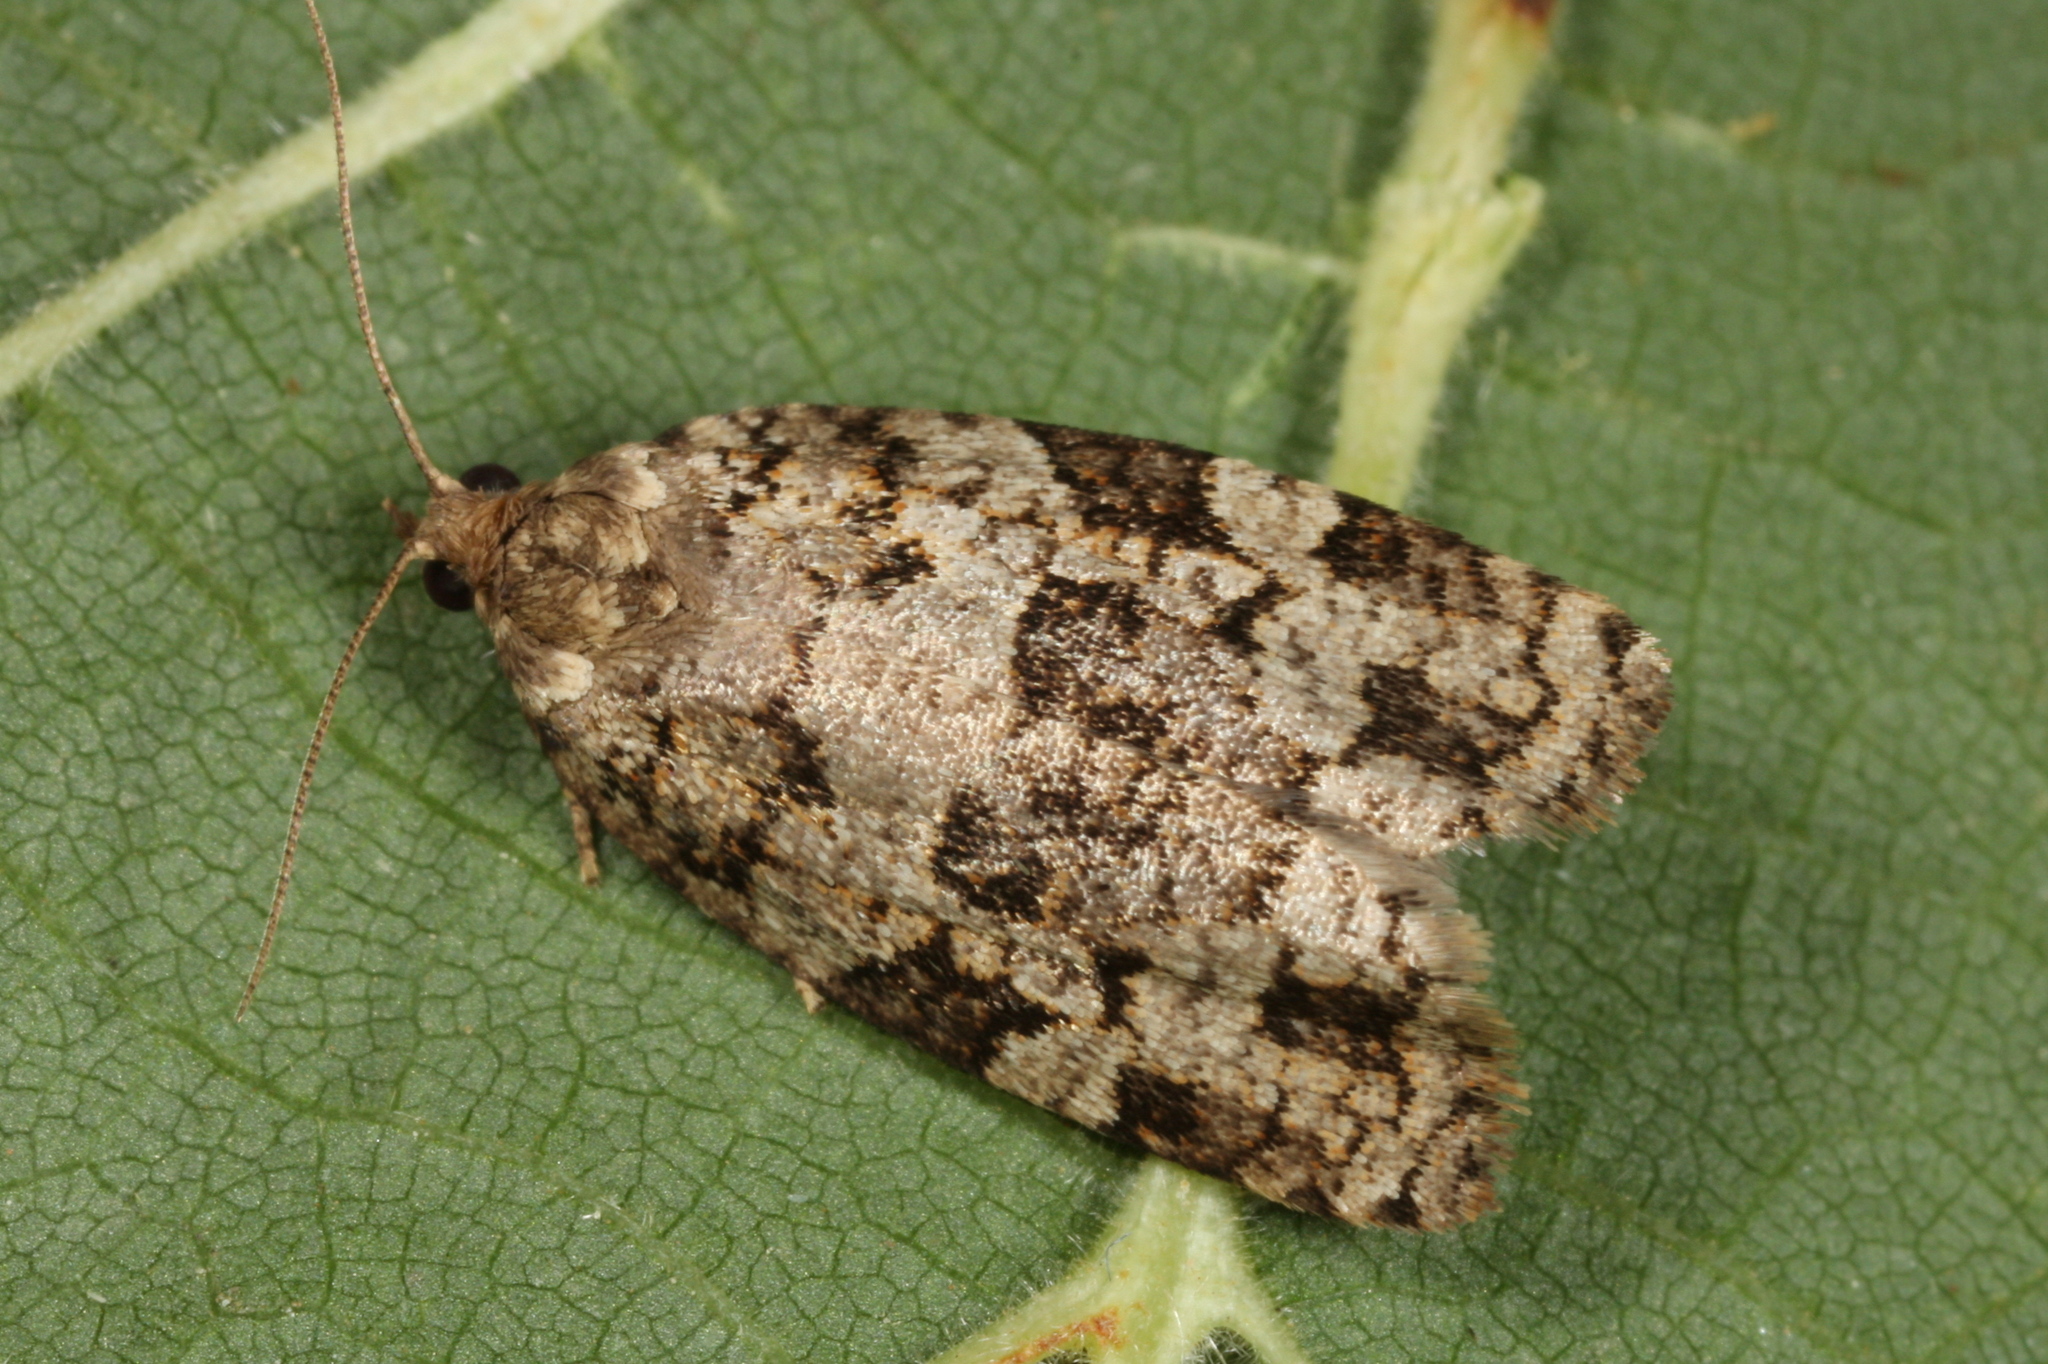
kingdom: Animalia
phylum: Arthropoda
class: Insecta
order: Lepidoptera
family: Tortricidae
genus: Dichelia
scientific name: Dichelia histrionana
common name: Tortricid moth
